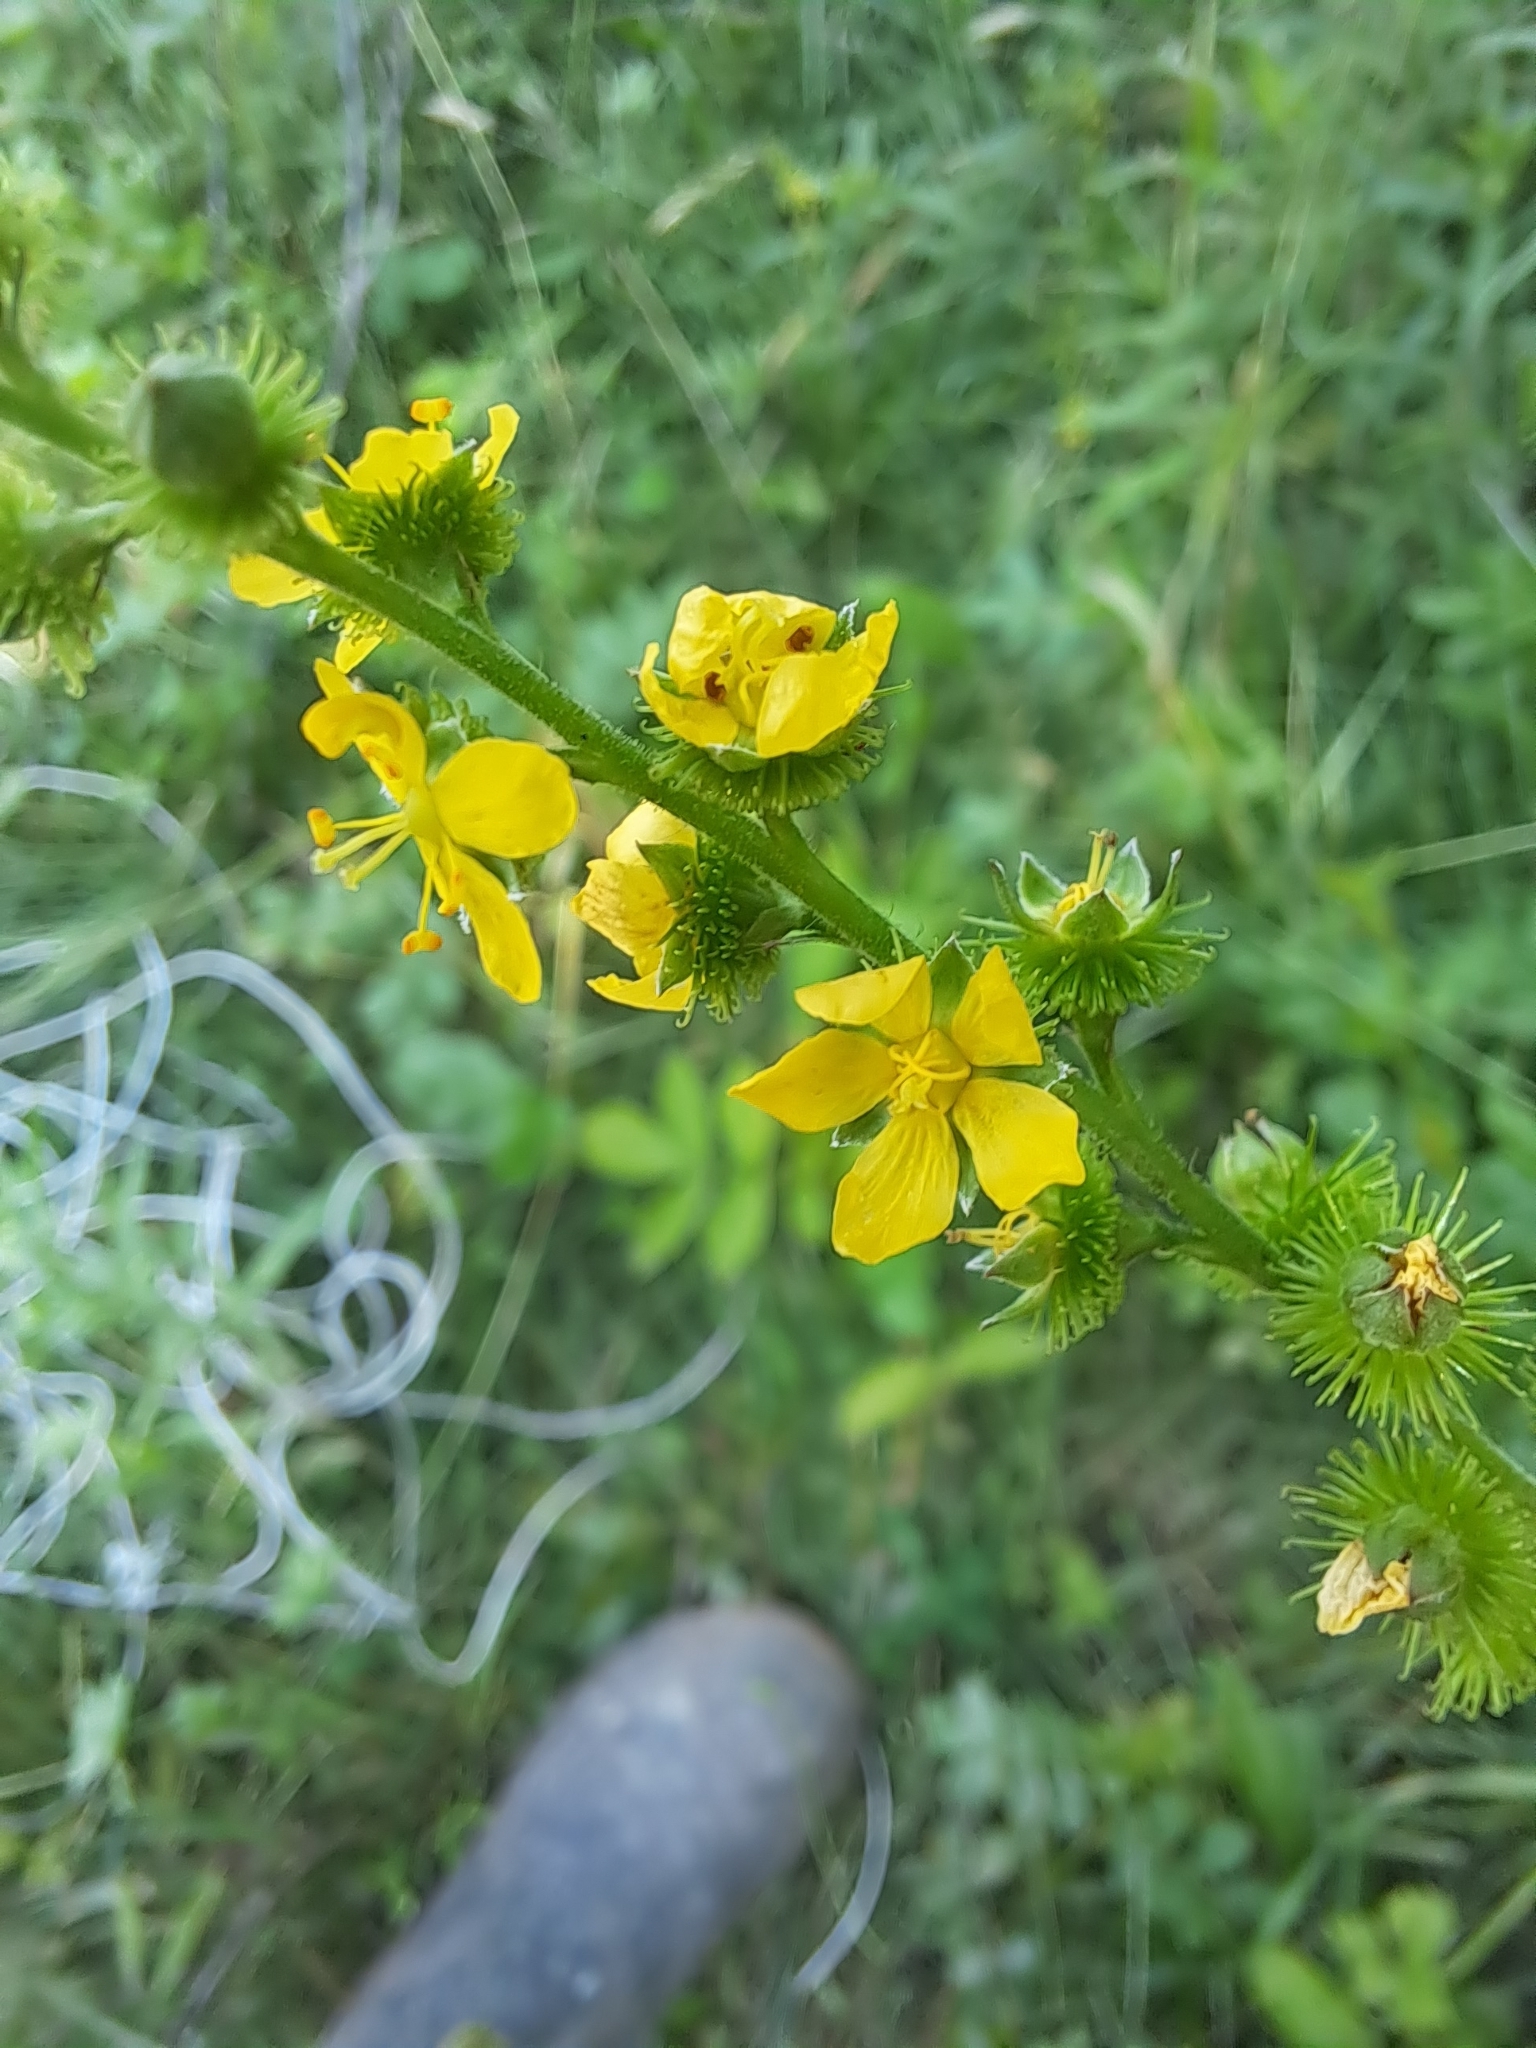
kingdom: Plantae
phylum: Tracheophyta
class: Magnoliopsida
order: Rosales
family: Rosaceae
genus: Agrimonia
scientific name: Agrimonia striata
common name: Britton's agrimony
